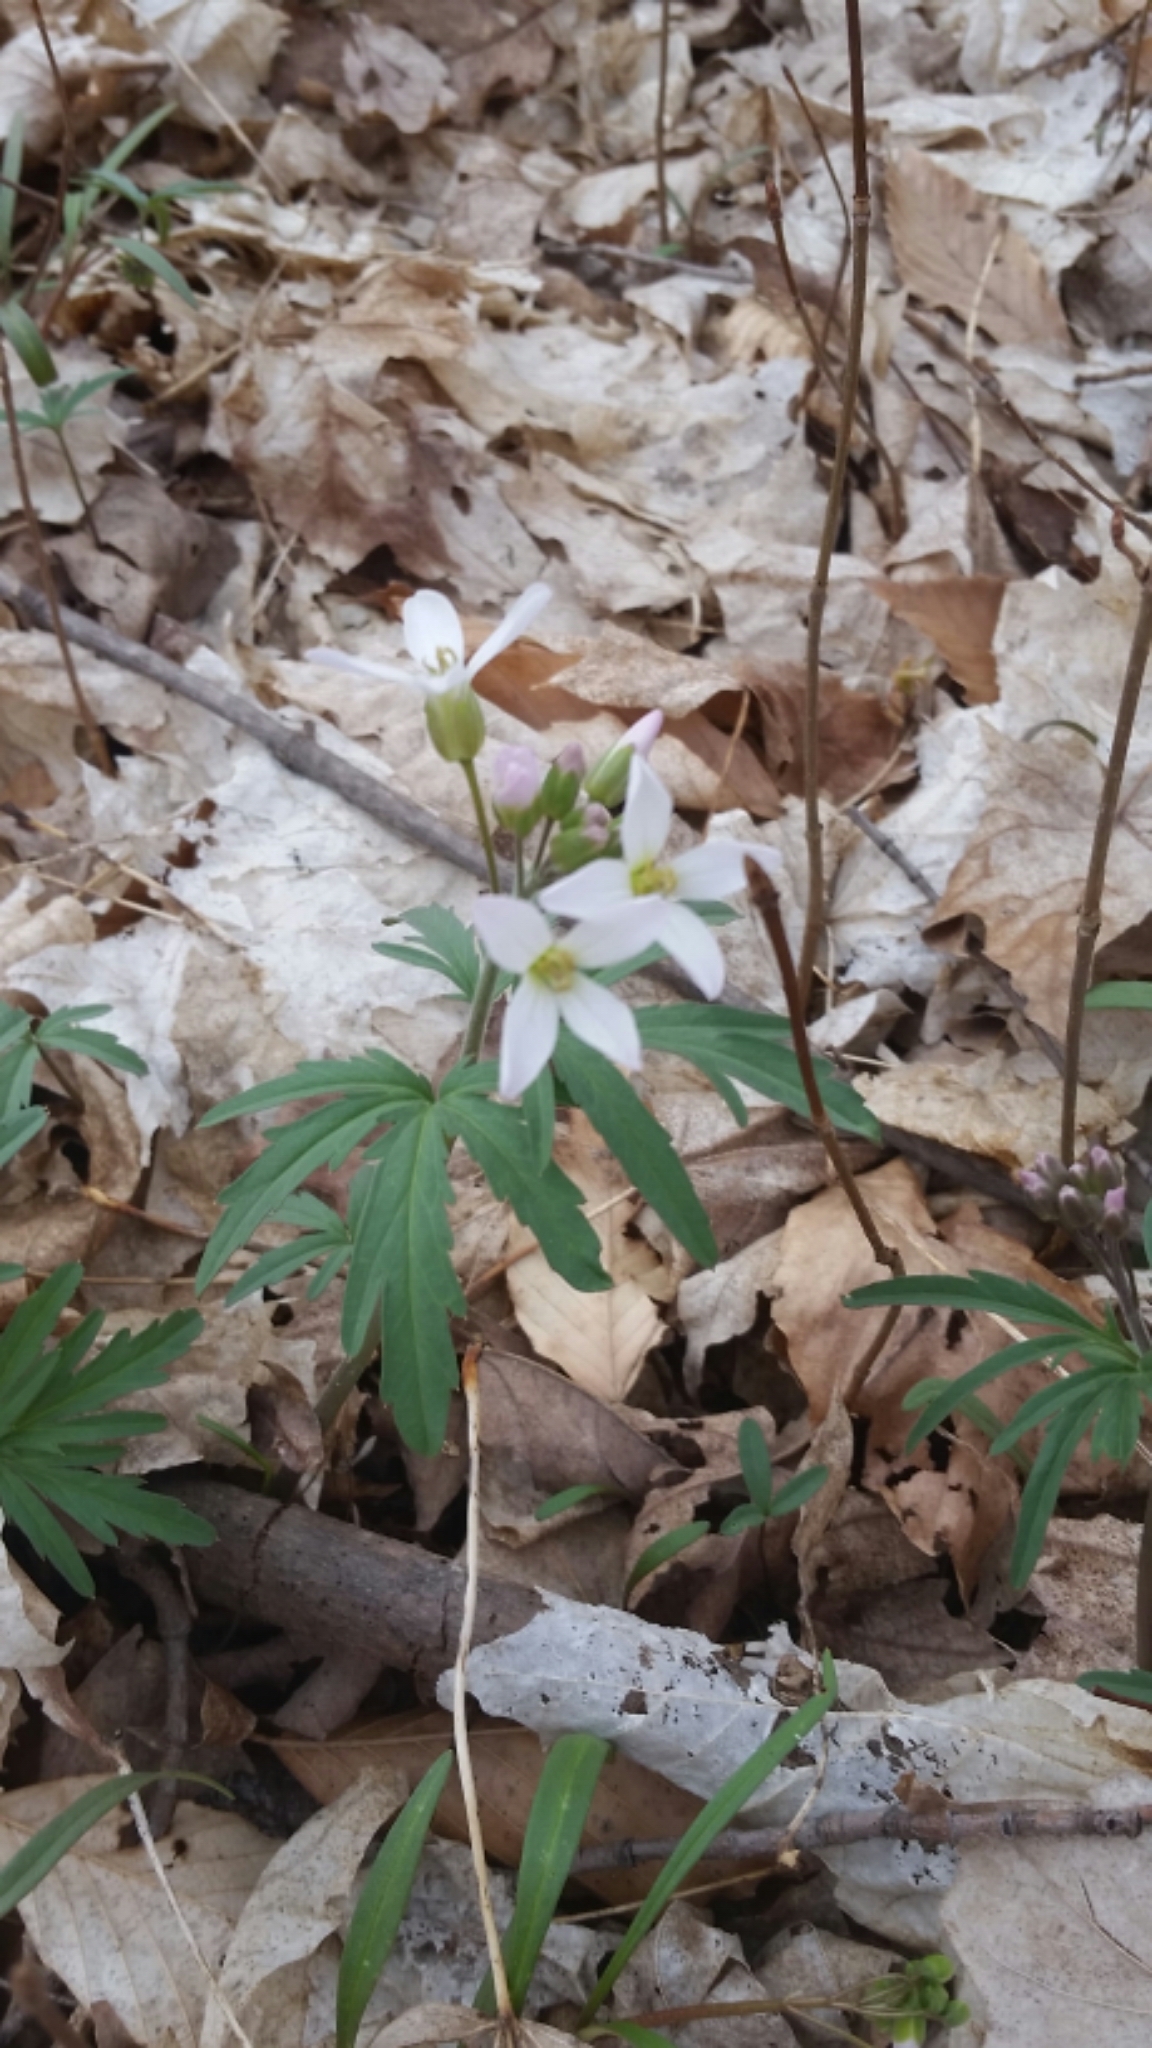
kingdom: Plantae
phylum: Tracheophyta
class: Magnoliopsida
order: Brassicales
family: Brassicaceae
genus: Cardamine
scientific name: Cardamine concatenata
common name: Cut-leaf toothcup
